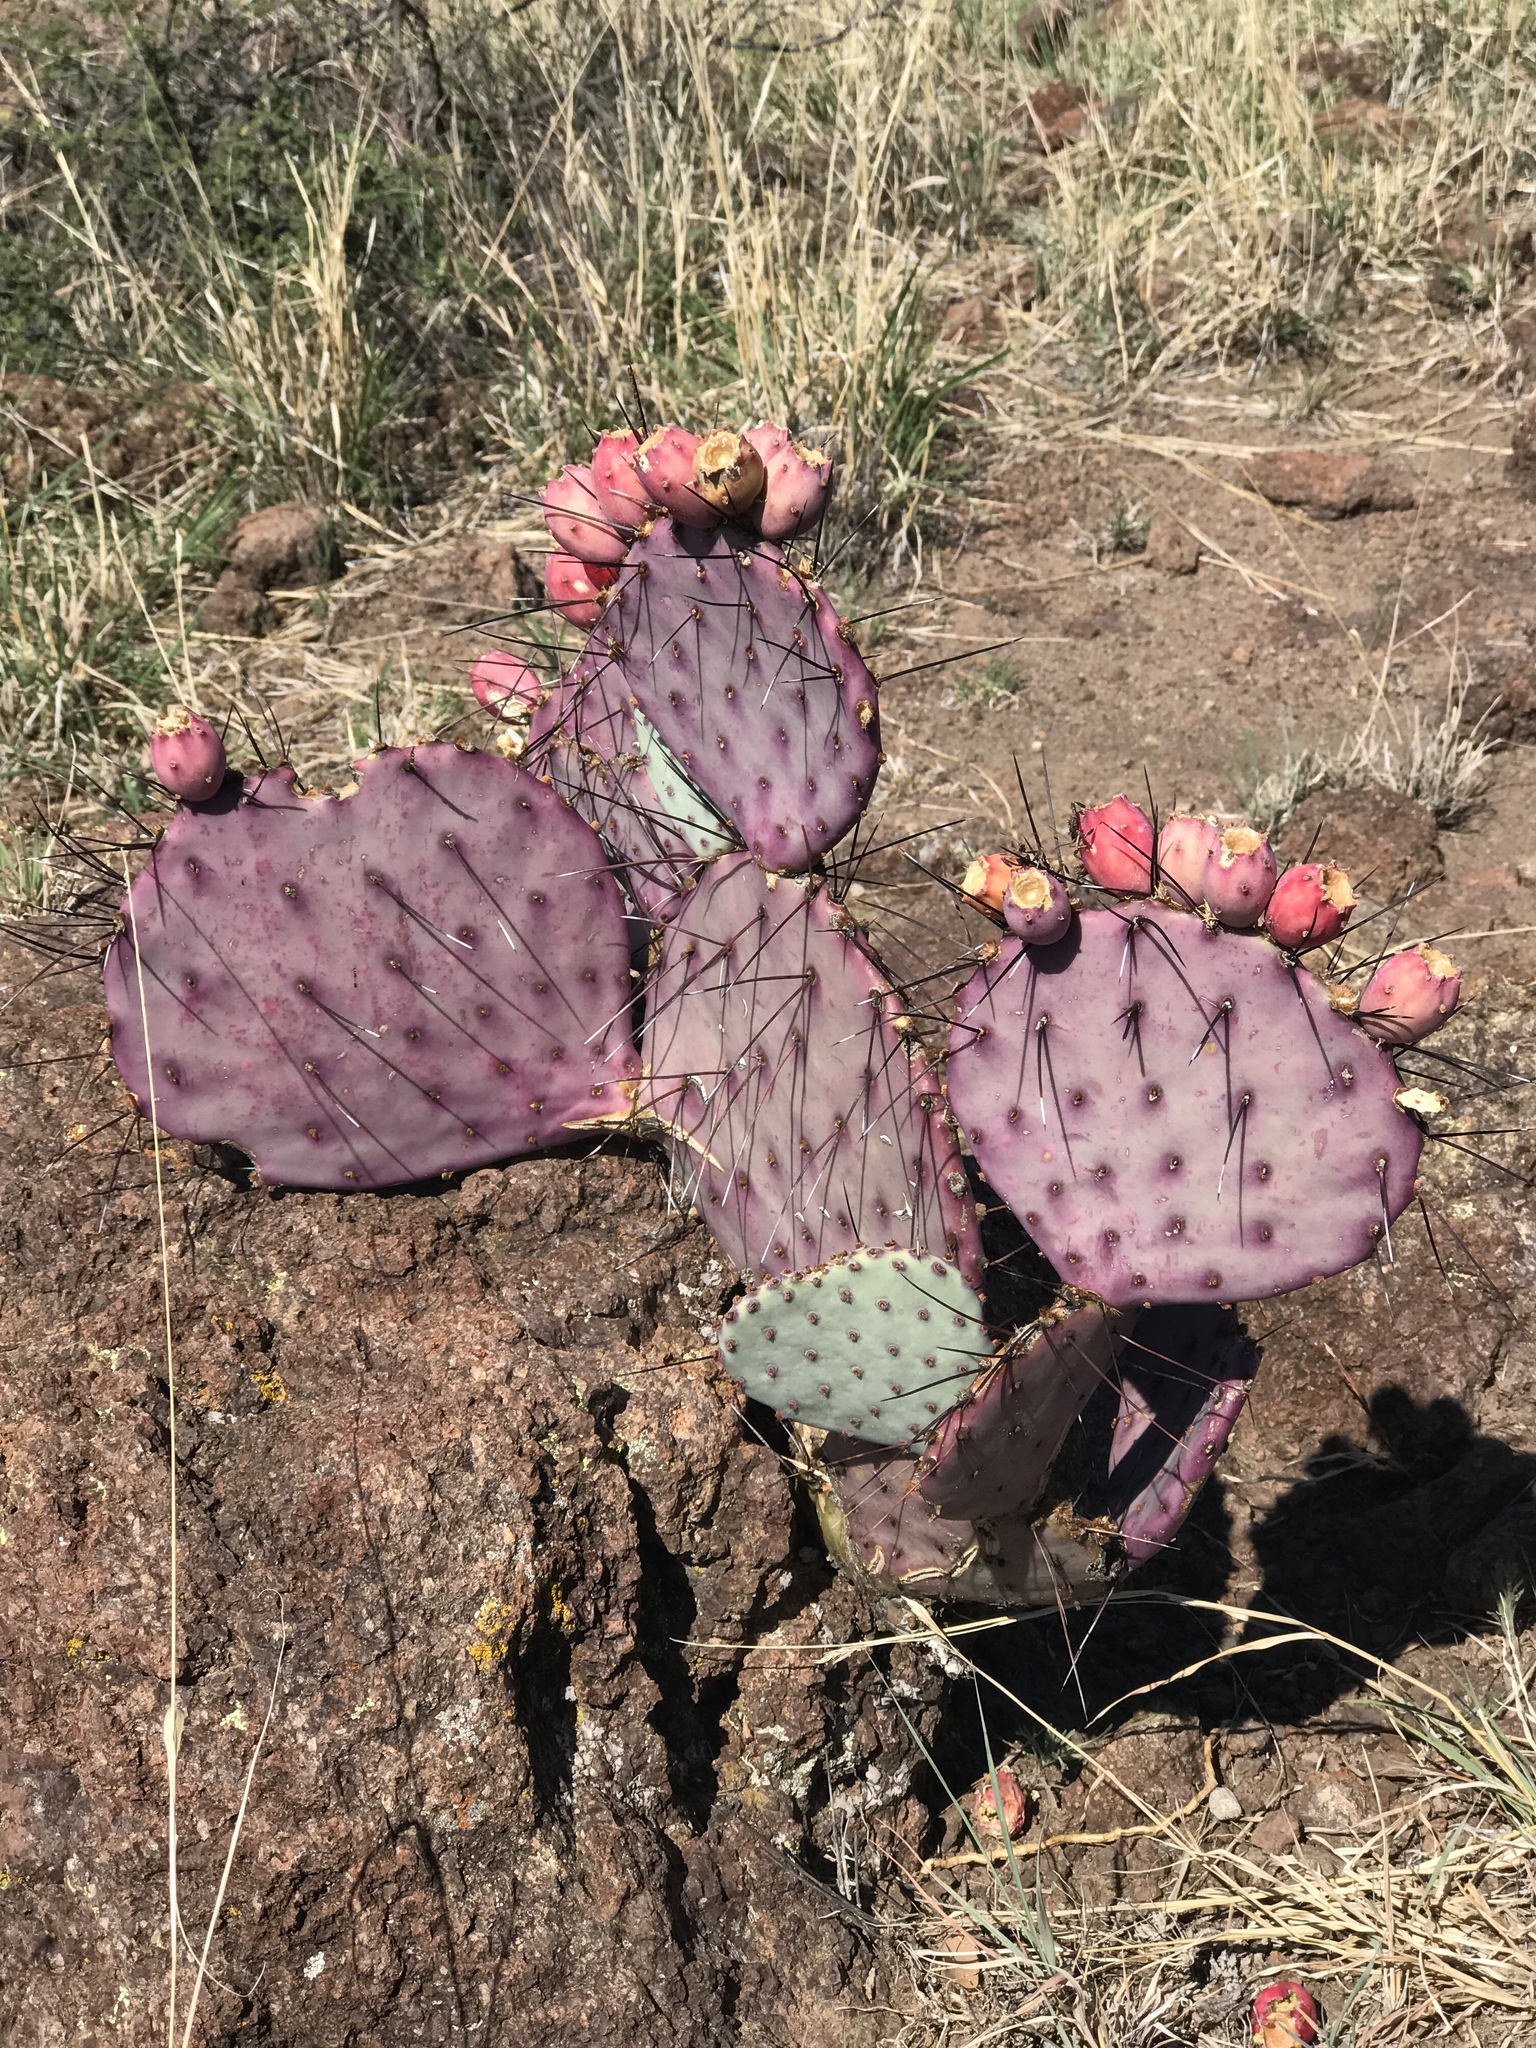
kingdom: Plantae
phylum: Tracheophyta
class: Magnoliopsida
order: Caryophyllales
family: Cactaceae
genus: Opuntia
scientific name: Opuntia macrocentra
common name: Purple prickly-pear
